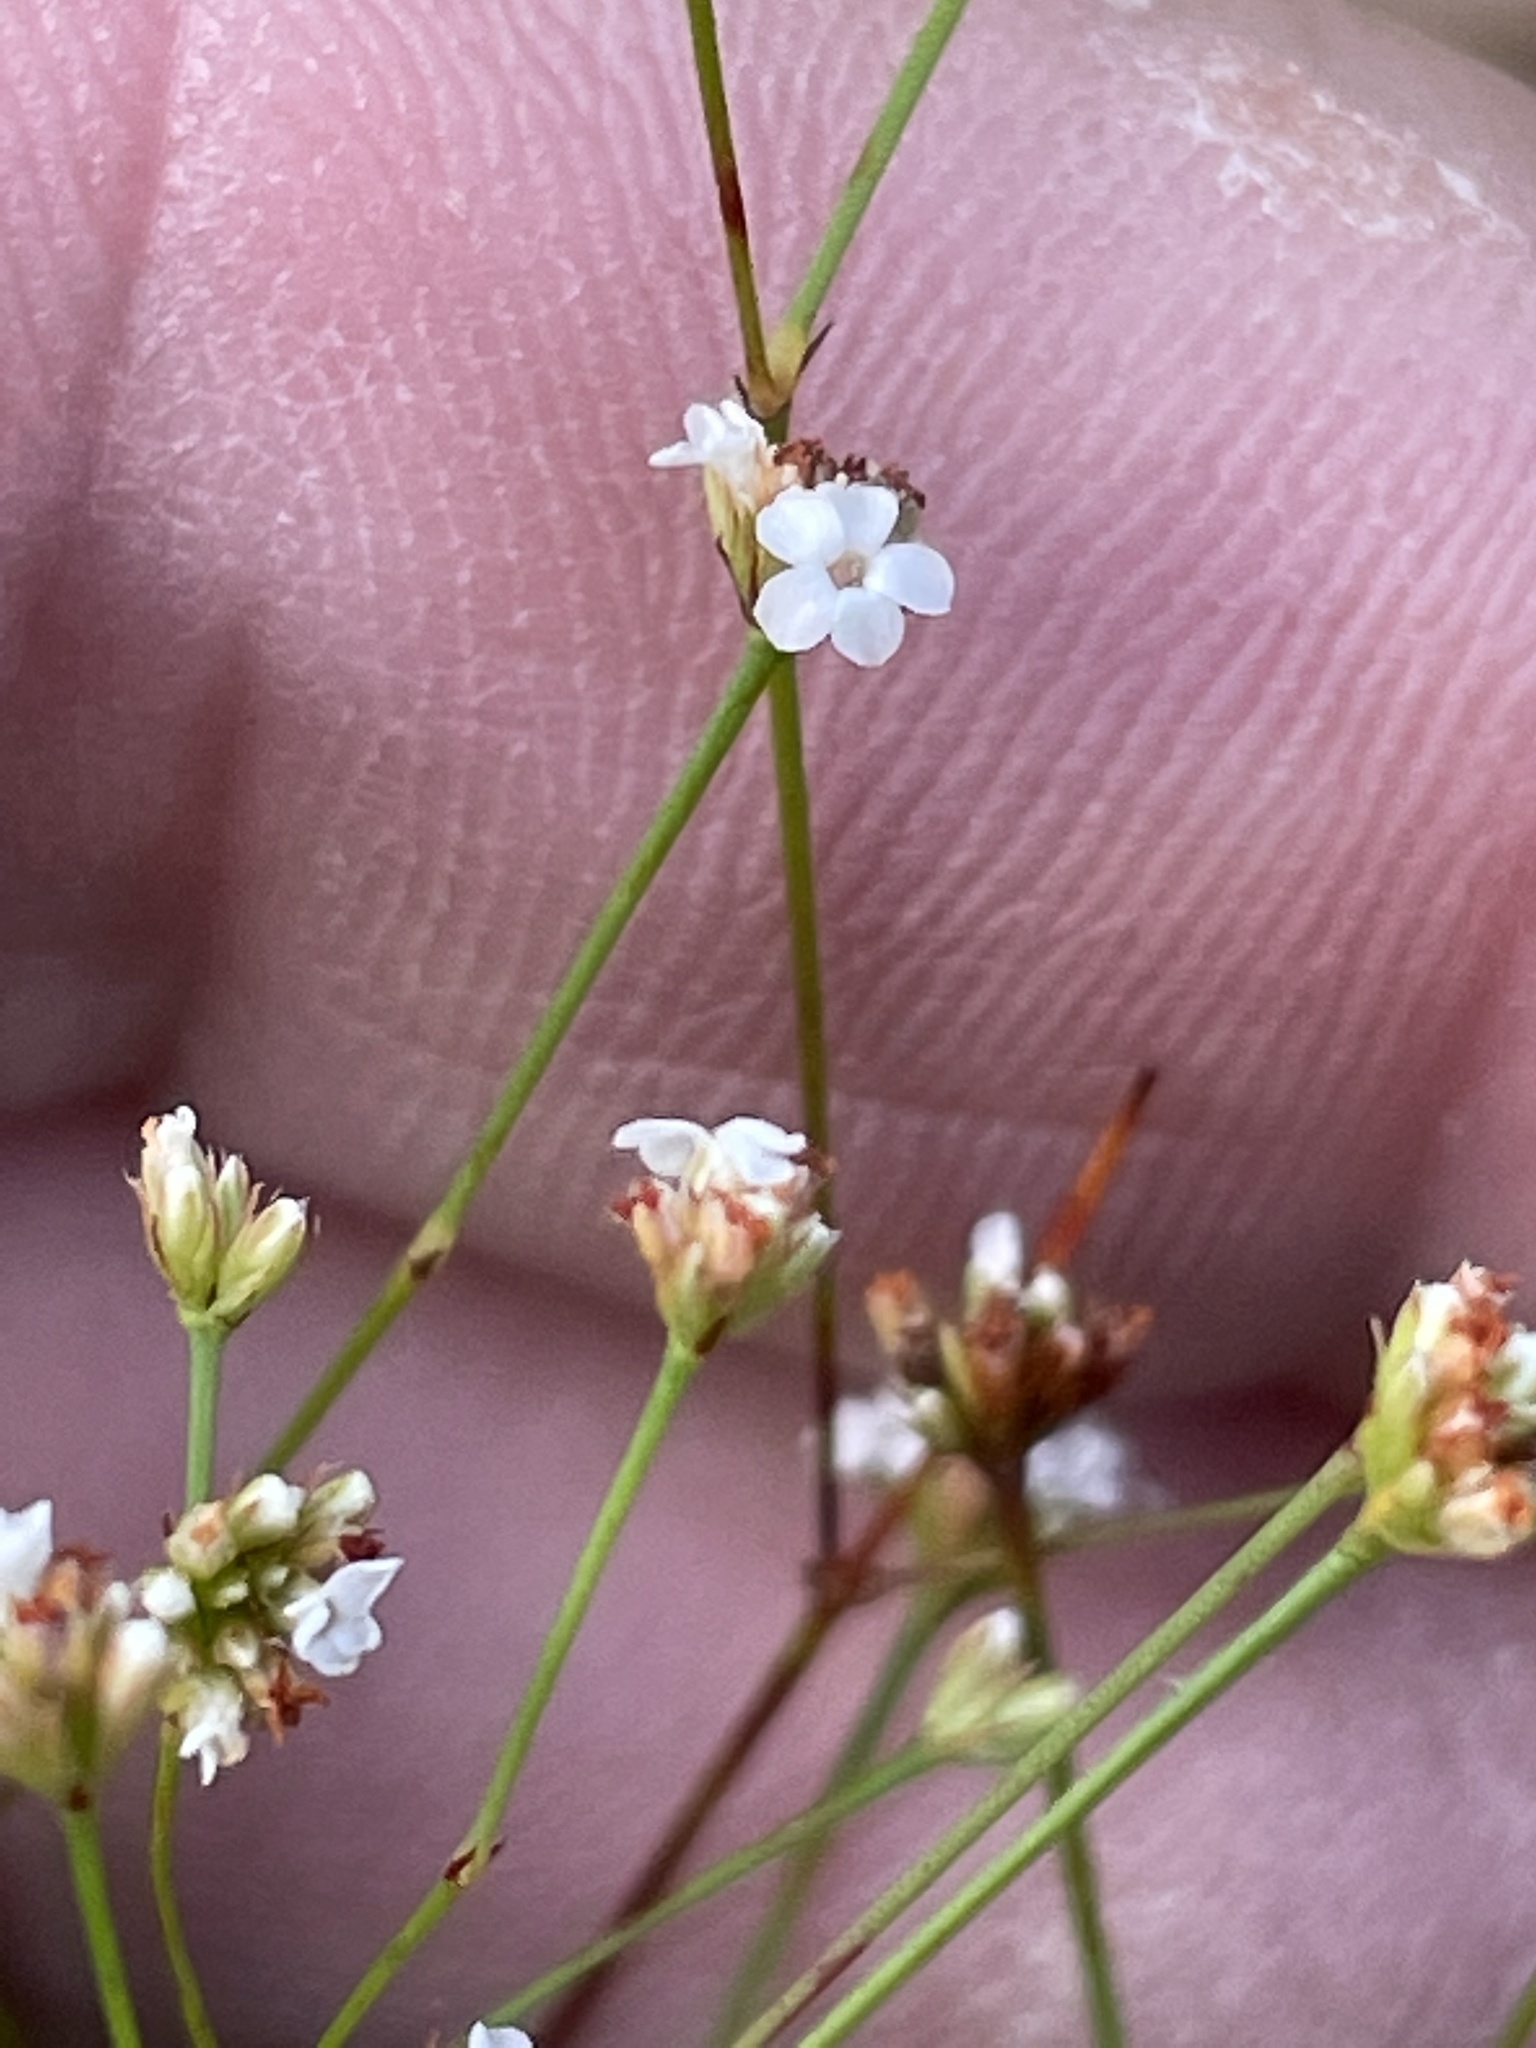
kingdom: Plantae
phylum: Tracheophyta
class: Magnoliopsida
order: Caryophyllales
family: Caryophyllaceae
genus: Stipulicida
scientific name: Stipulicida setacea
